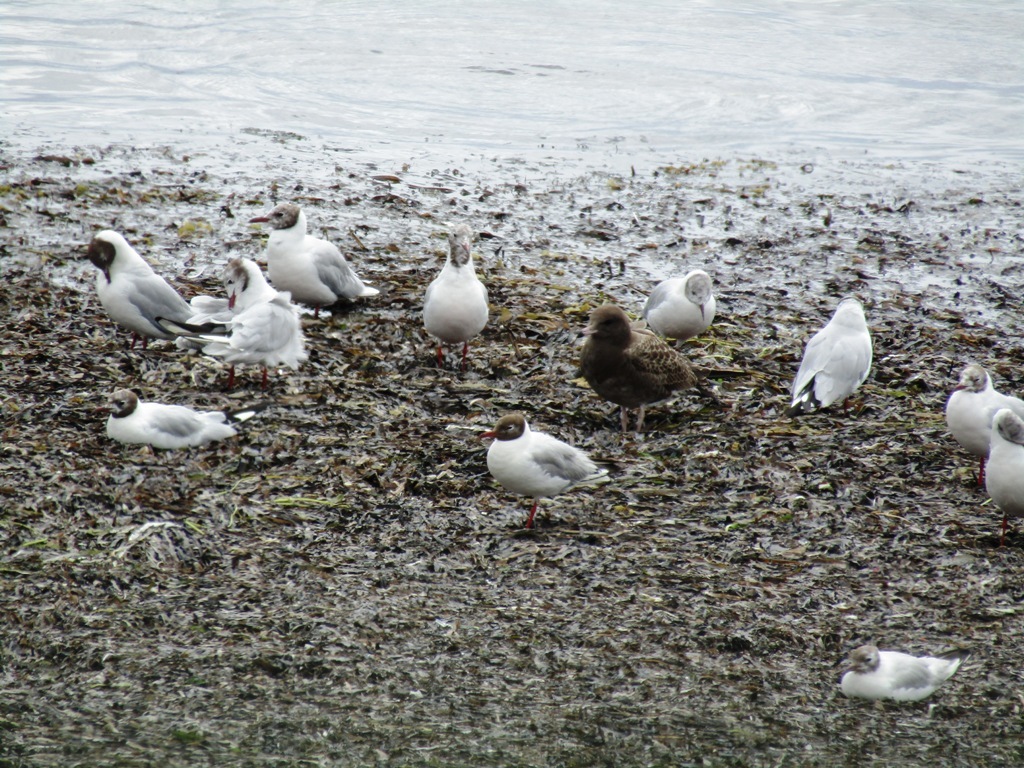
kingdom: Animalia
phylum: Chordata
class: Aves
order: Charadriiformes
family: Laridae
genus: Chroicocephalus
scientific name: Chroicocephalus ridibundus
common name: Black-headed gull
